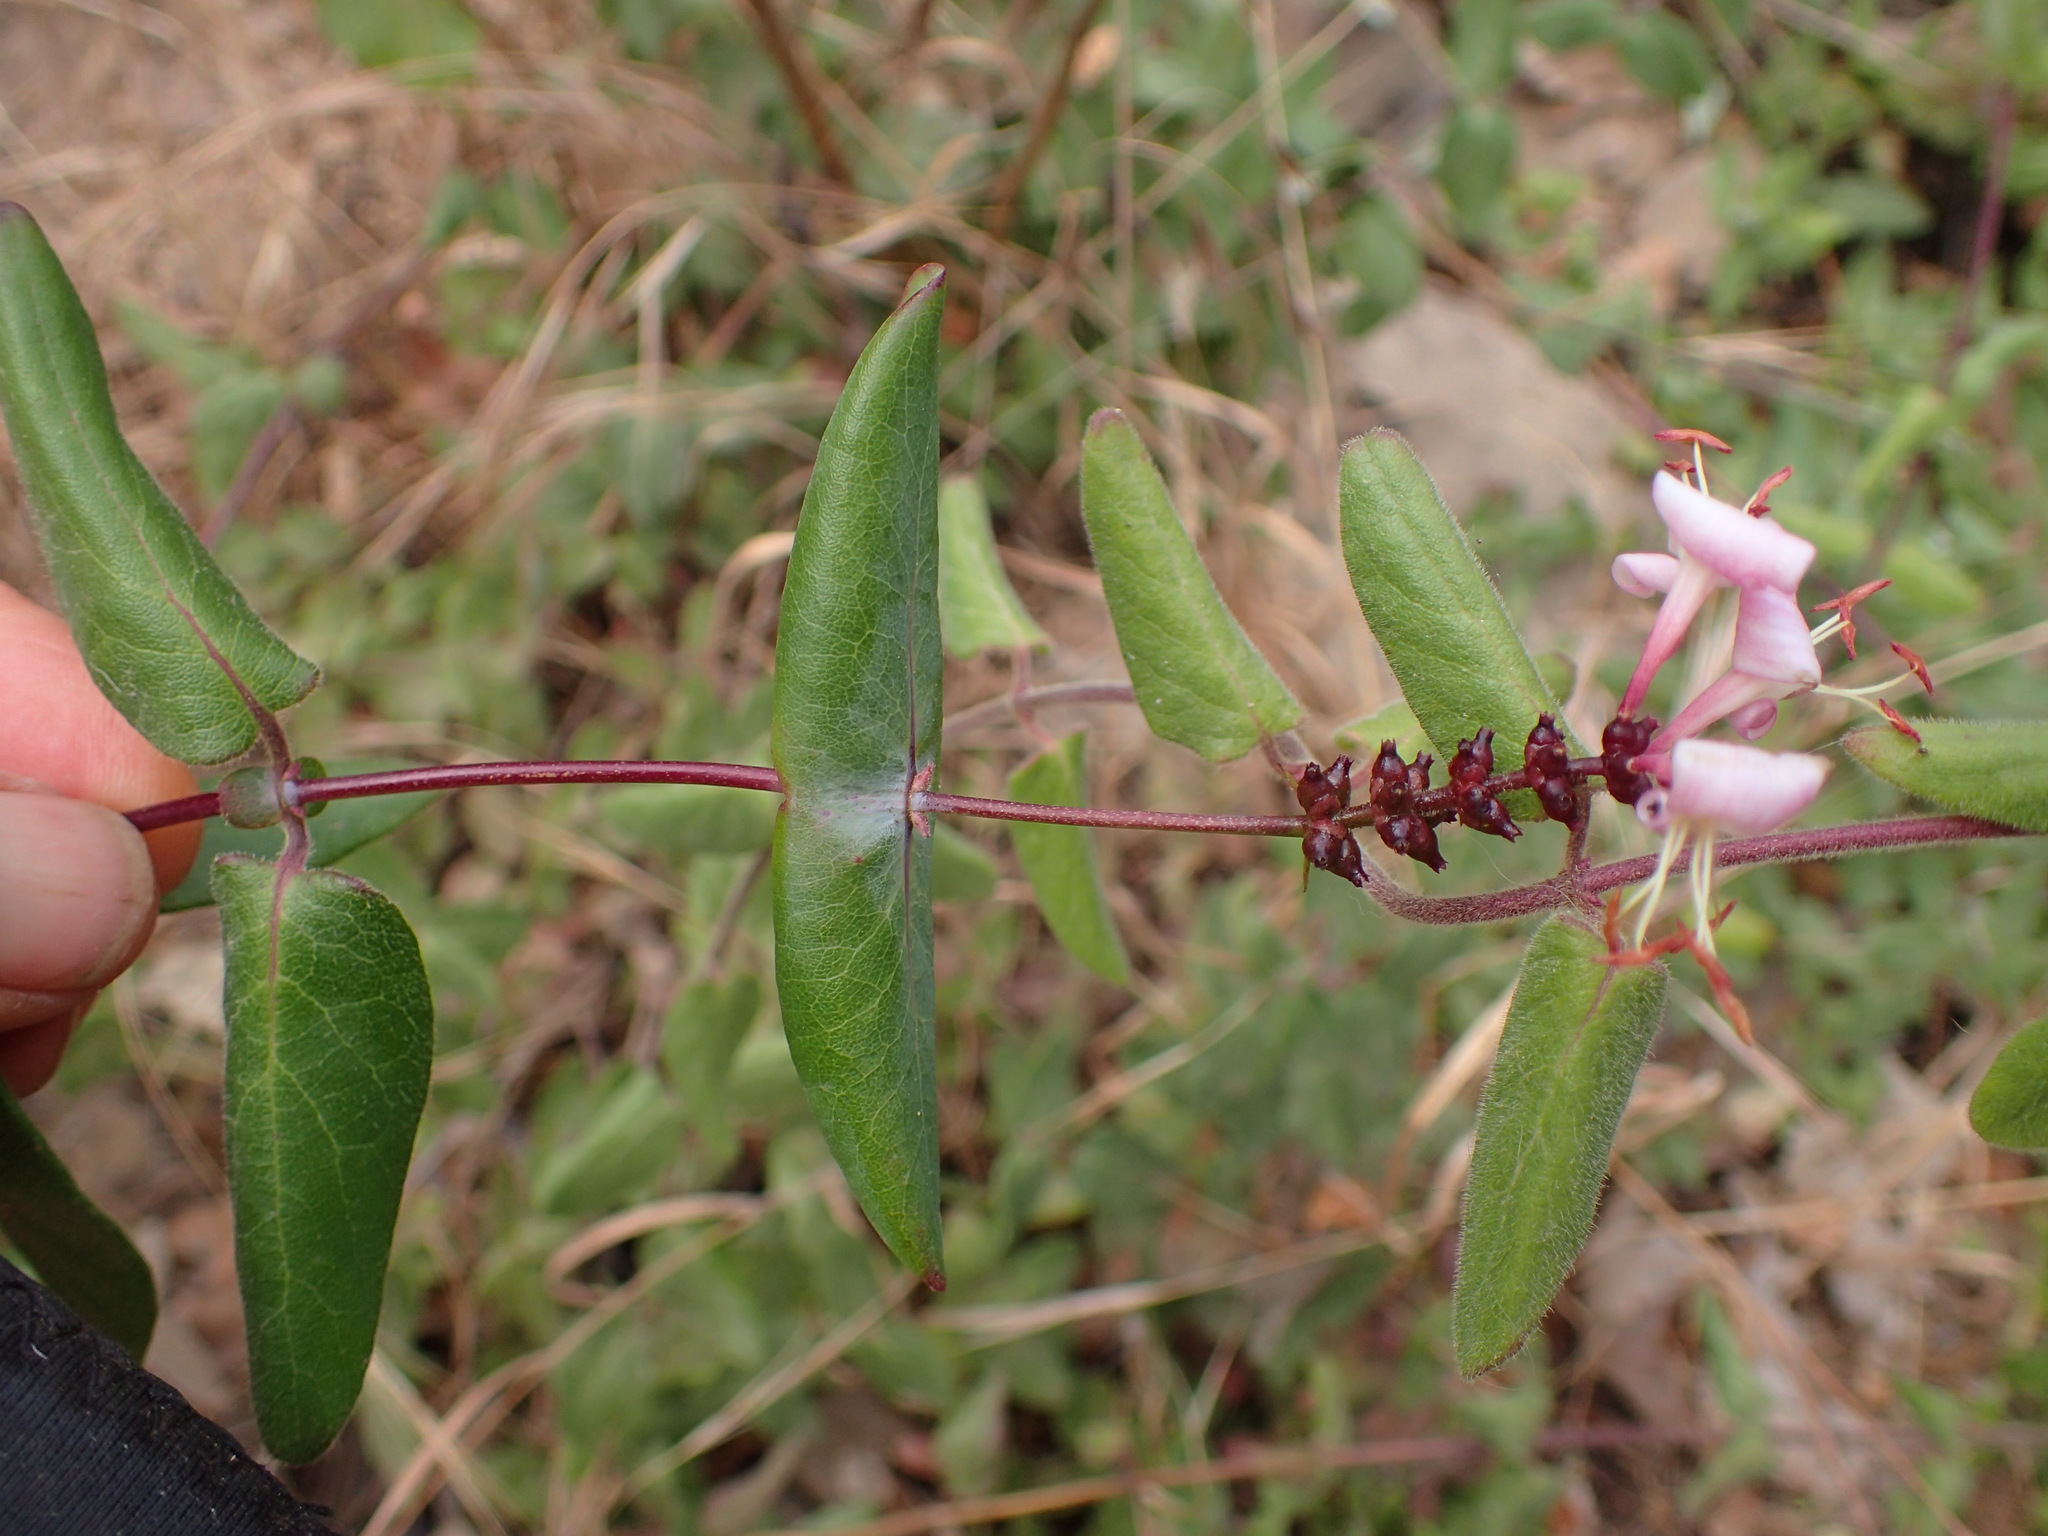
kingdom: Plantae
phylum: Tracheophyta
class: Magnoliopsida
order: Dipsacales
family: Caprifoliaceae
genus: Lonicera
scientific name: Lonicera hispidula
